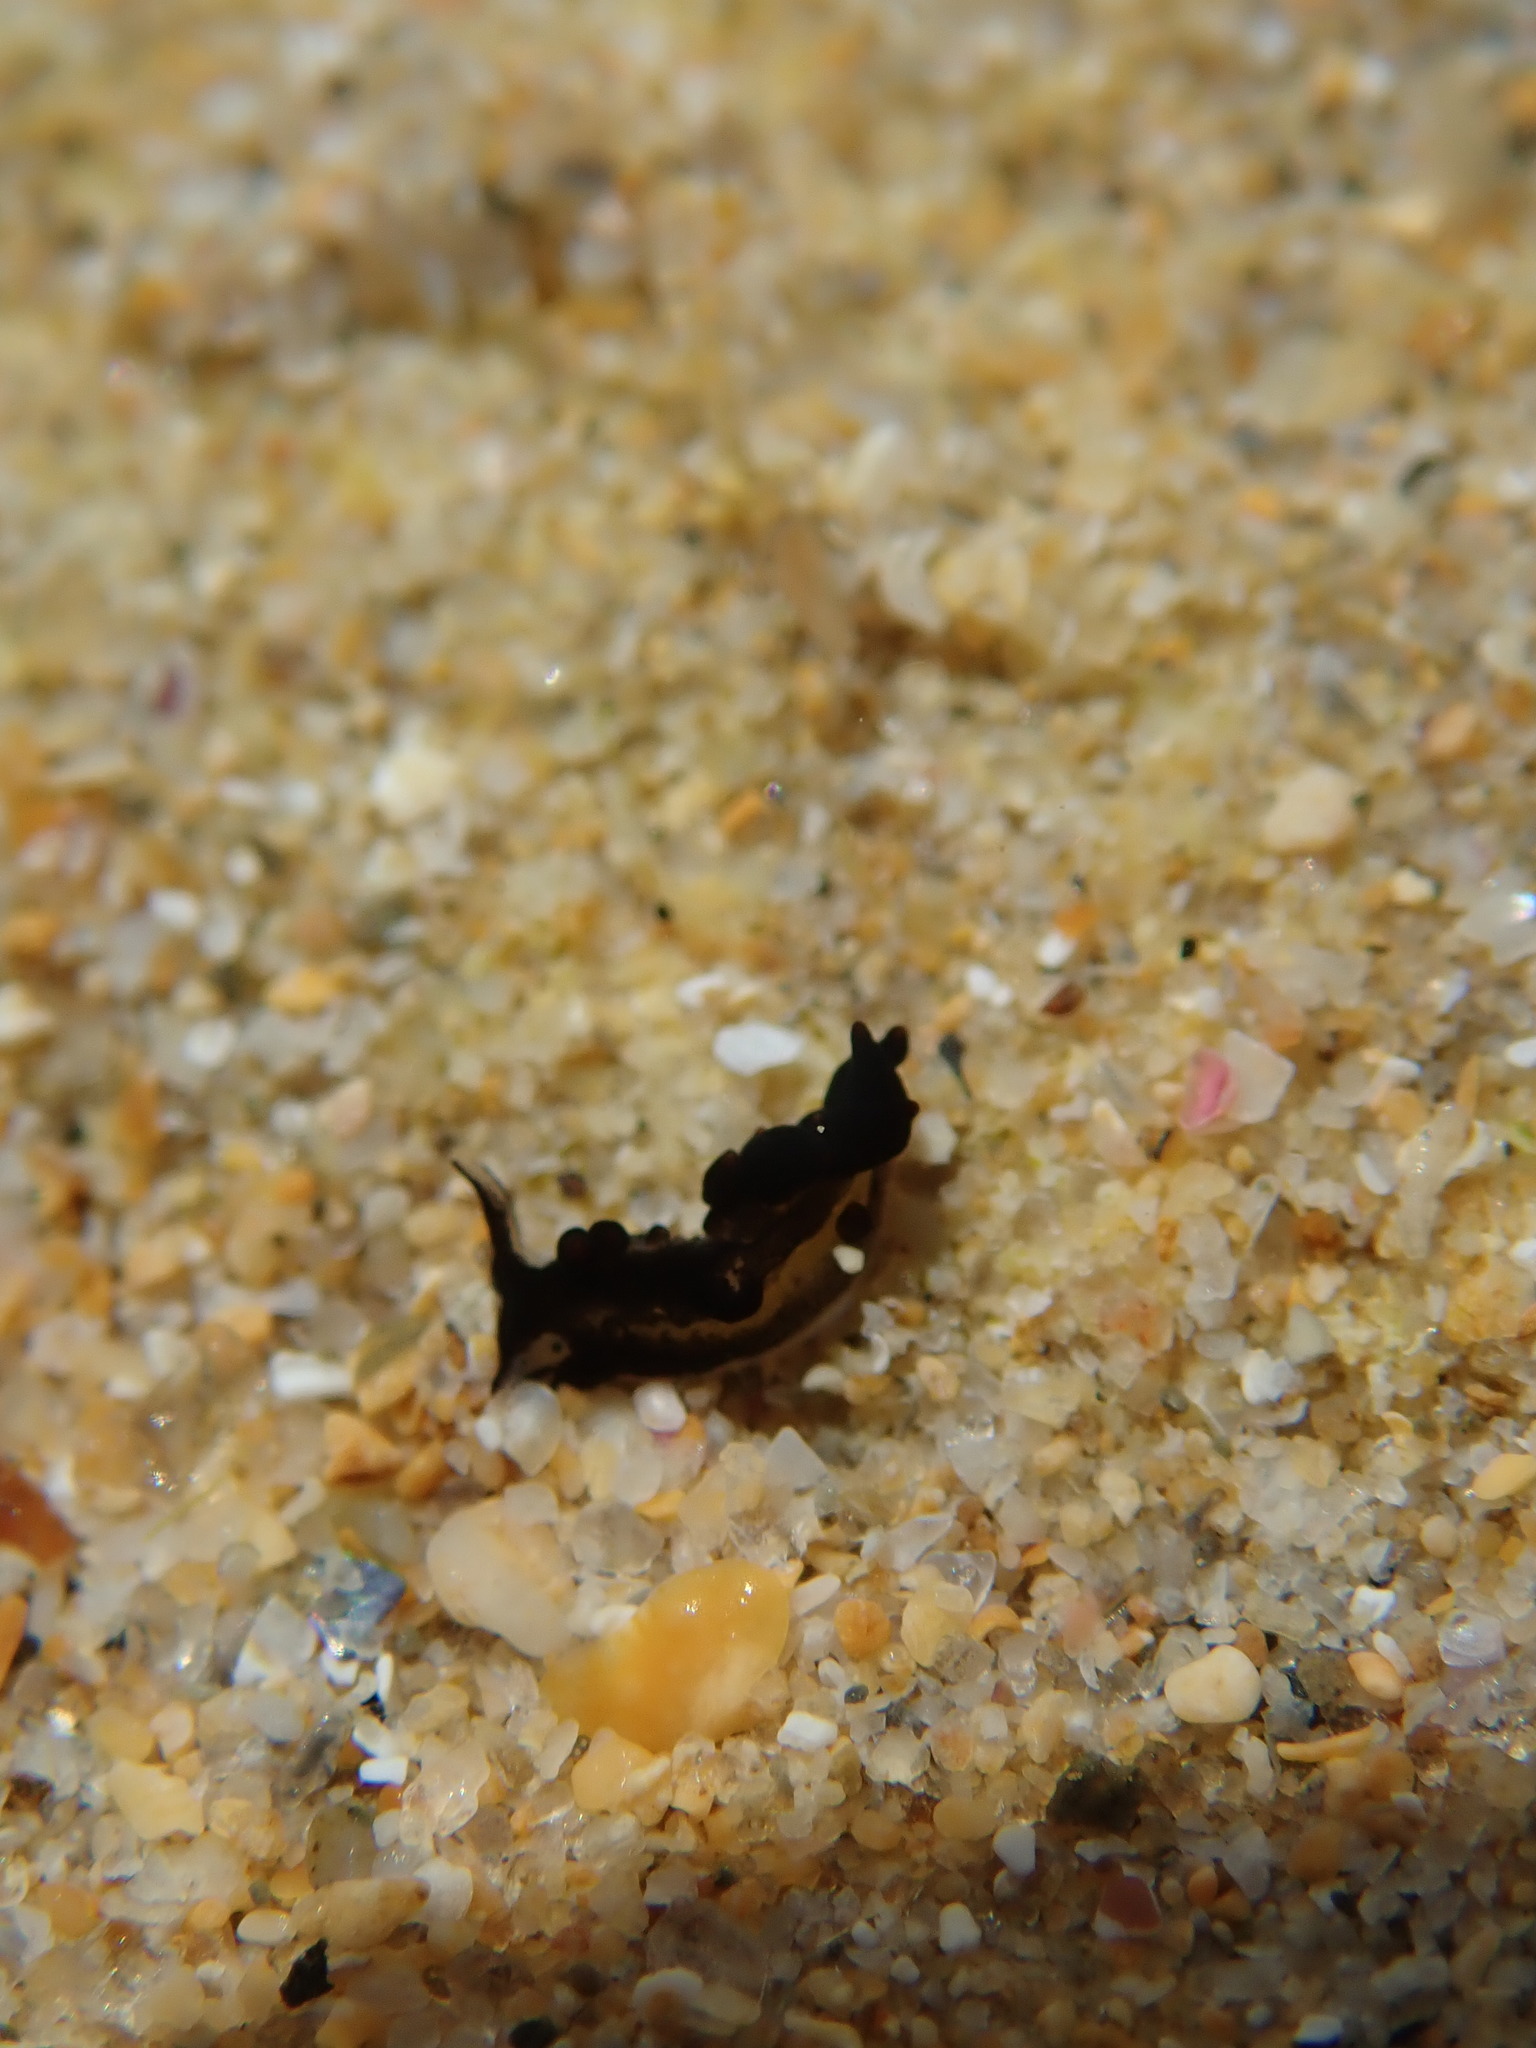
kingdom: Animalia
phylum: Mollusca
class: Gastropoda
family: Limapontiidae
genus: Ercolania
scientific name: Ercolania margaritae
